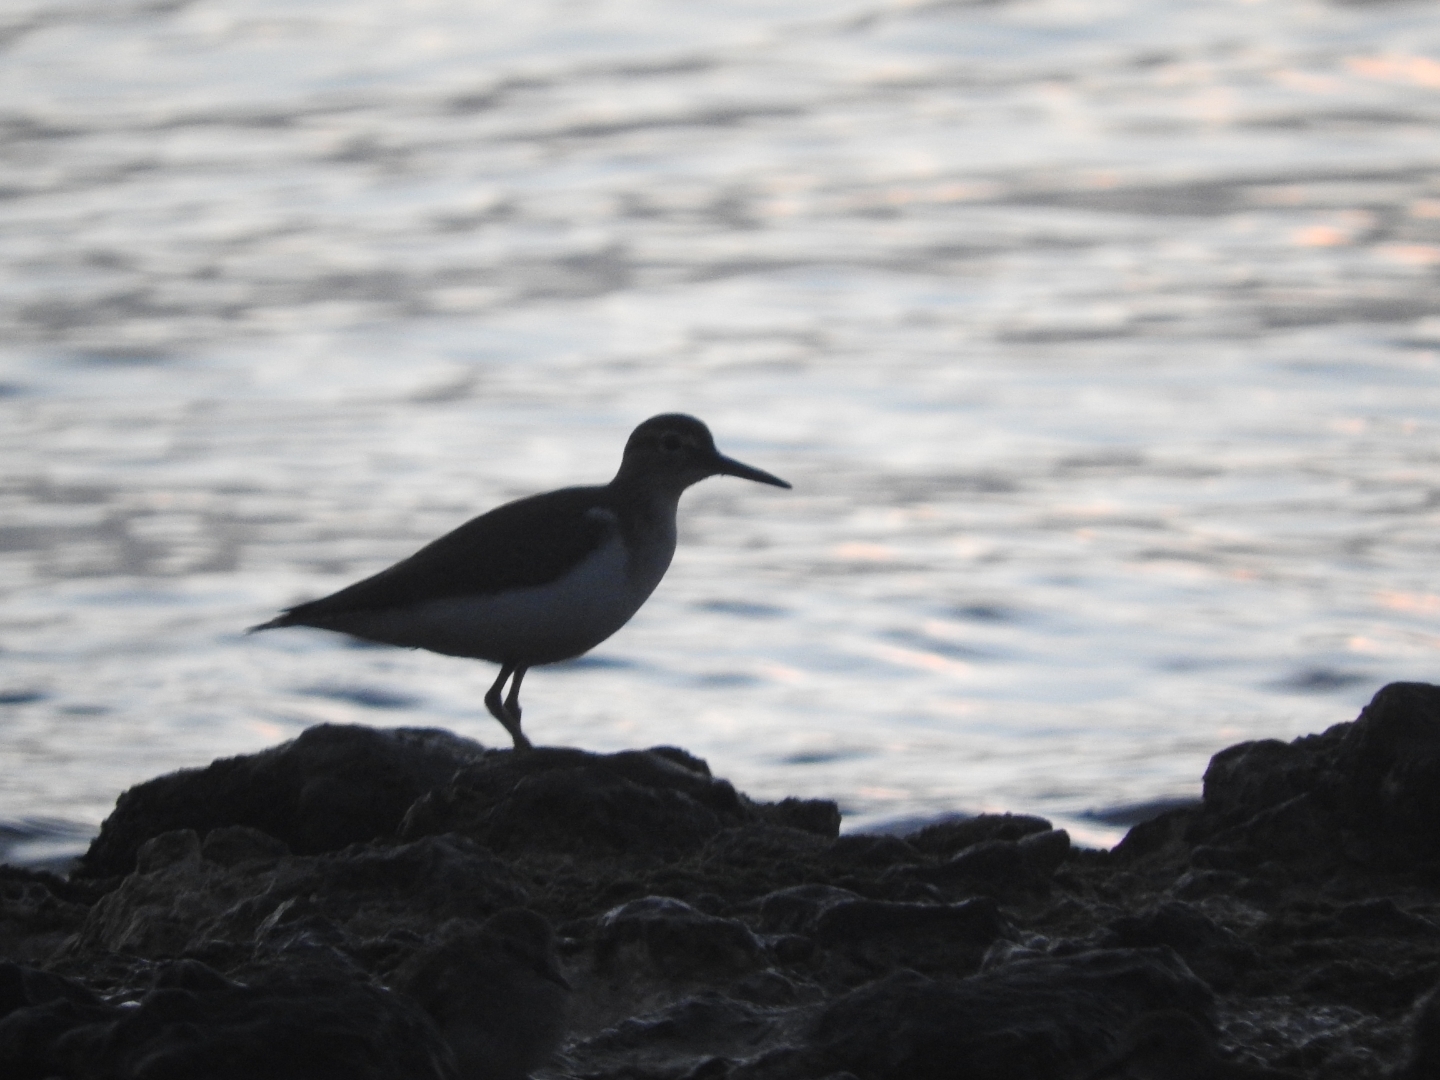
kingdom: Animalia
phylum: Chordata
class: Aves
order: Charadriiformes
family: Scolopacidae
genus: Actitis
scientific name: Actitis macularius
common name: Spotted sandpiper
